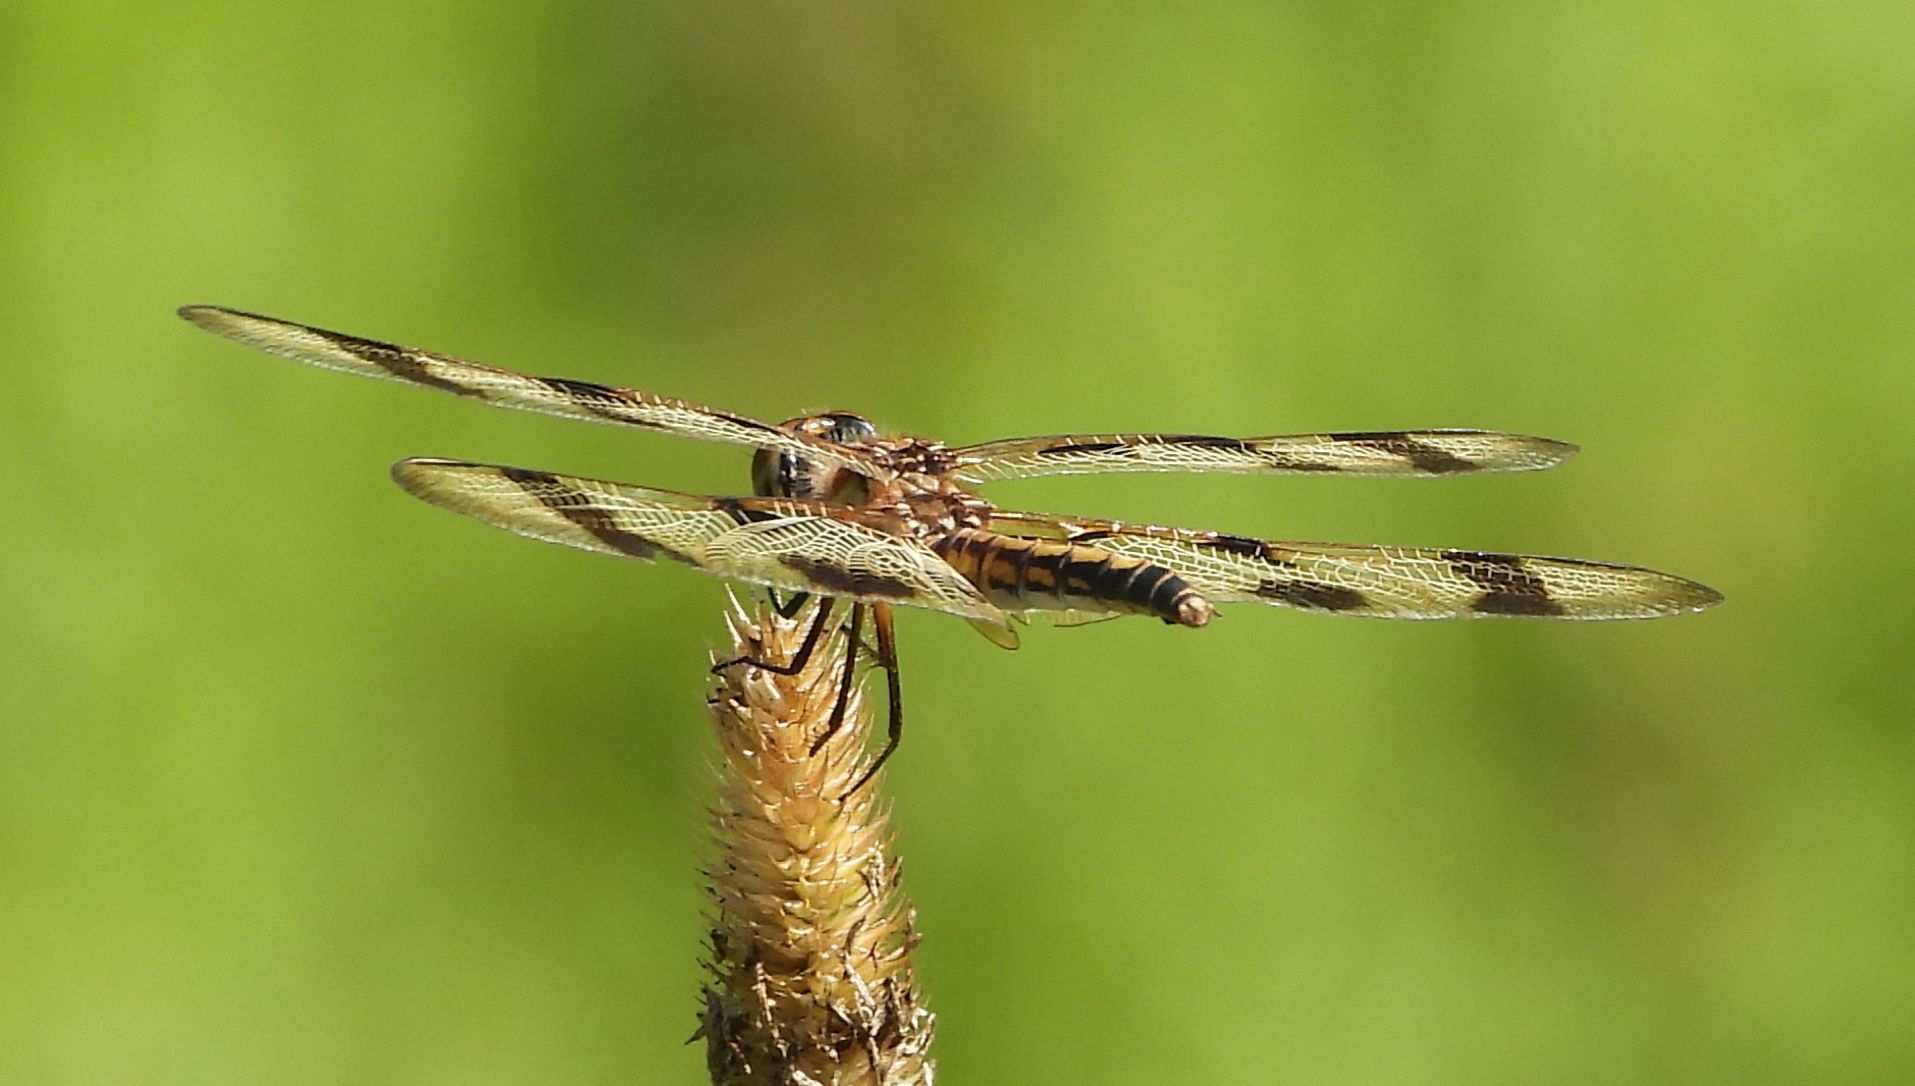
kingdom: Animalia
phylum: Arthropoda
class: Insecta
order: Odonata
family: Libellulidae
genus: Celithemis
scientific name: Celithemis eponina
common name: Halloween pennant
